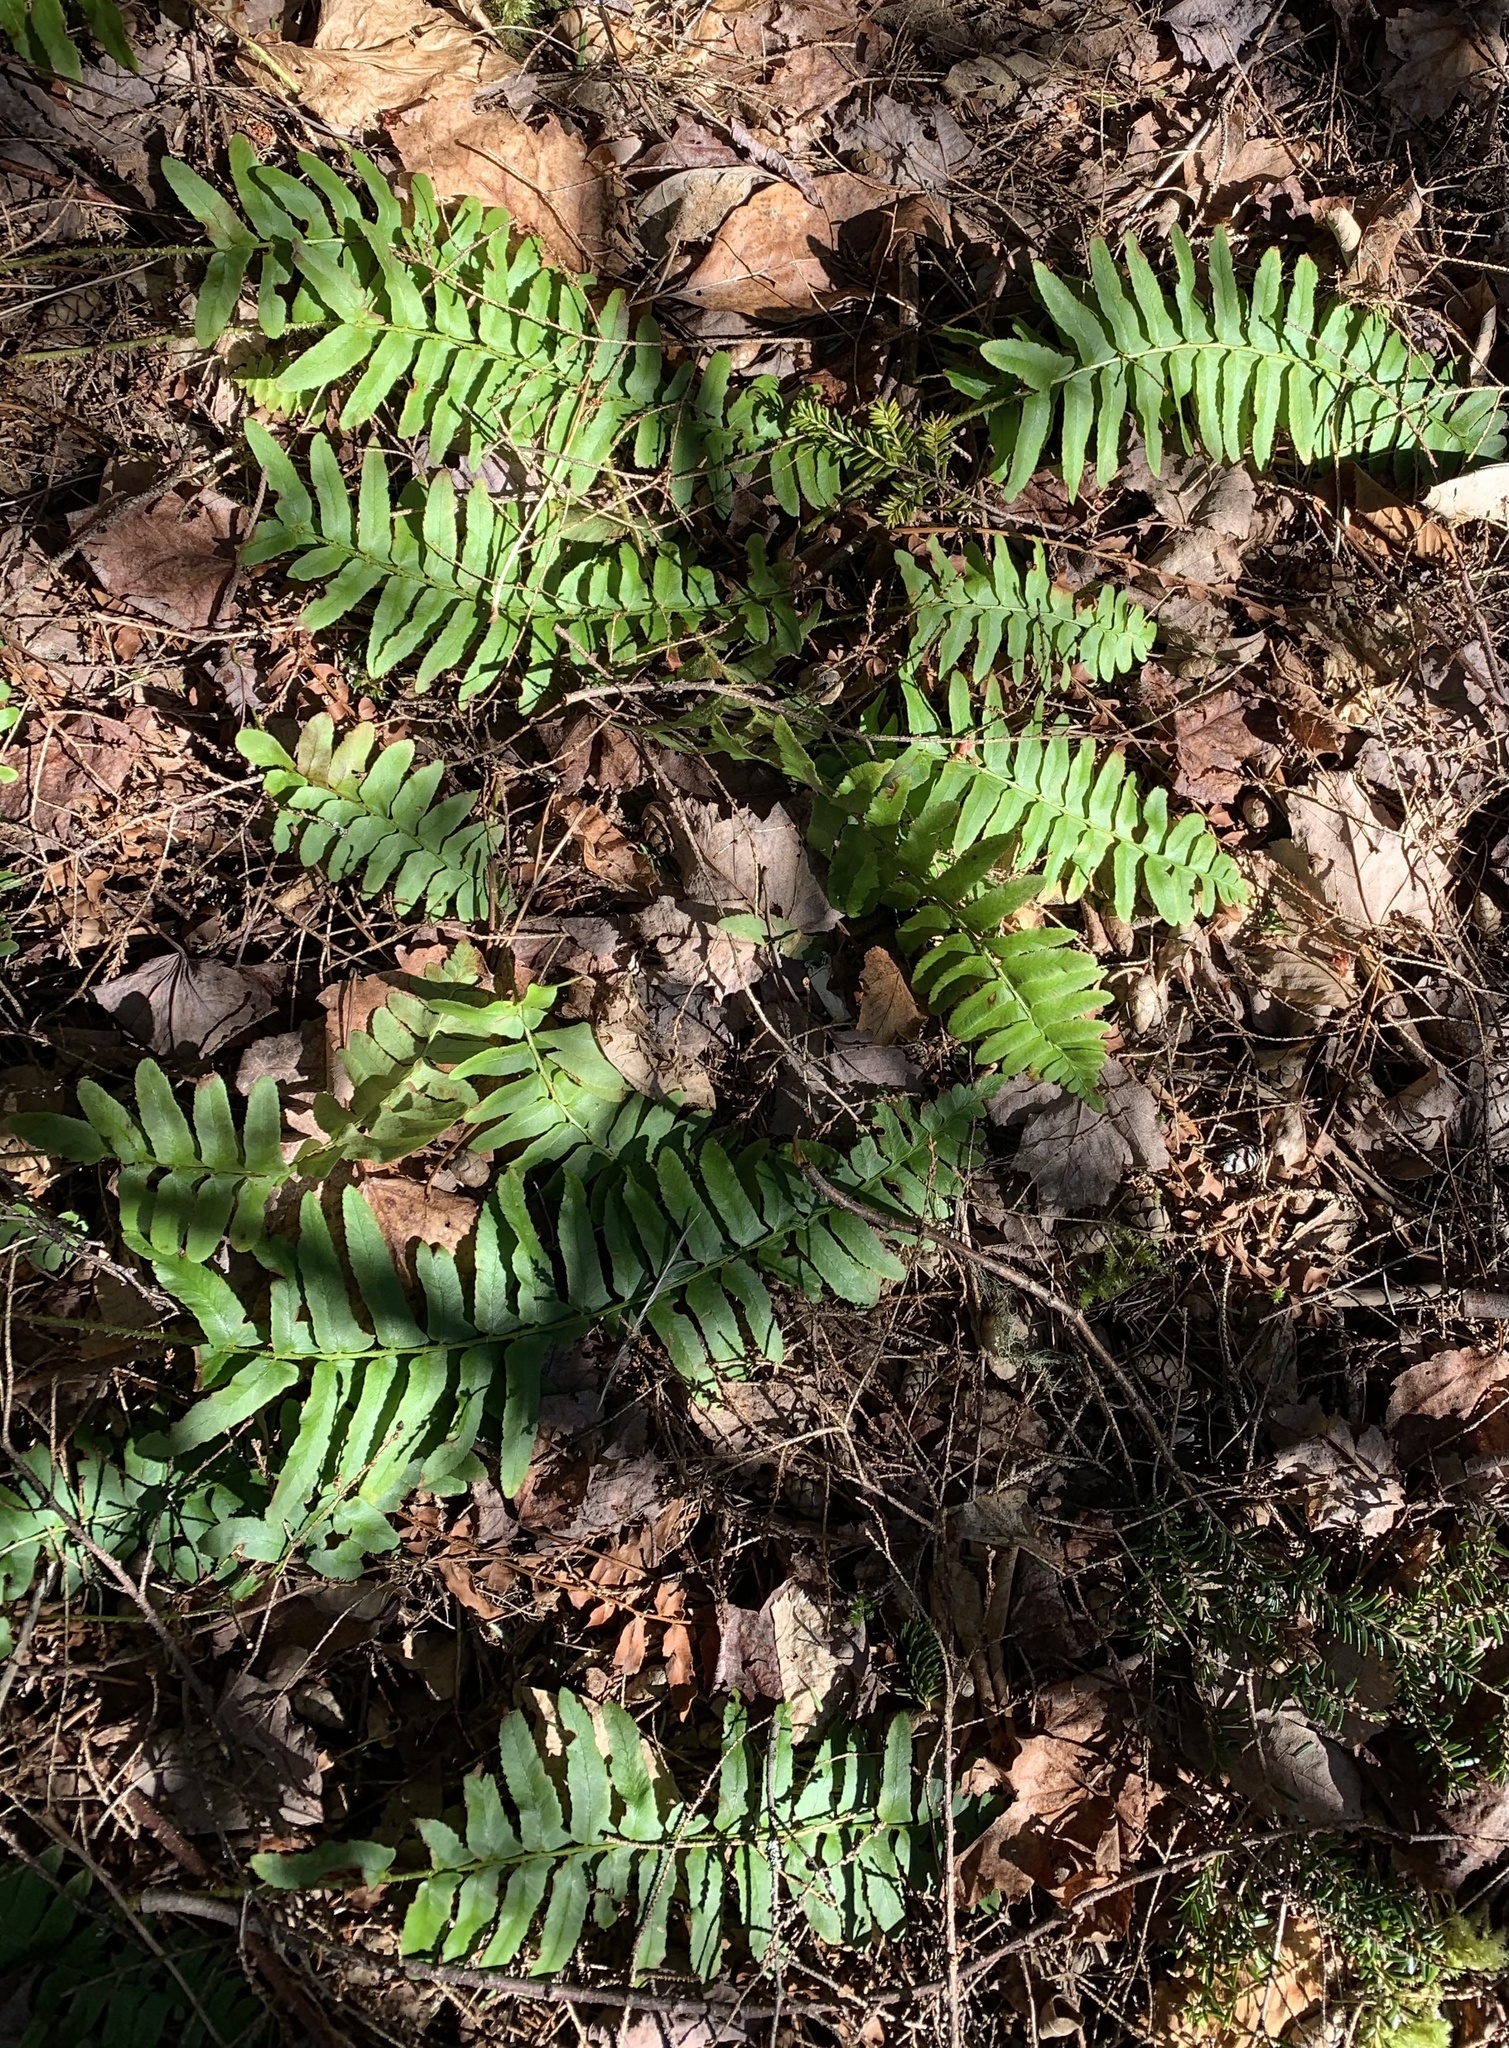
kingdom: Plantae
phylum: Tracheophyta
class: Polypodiopsida
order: Polypodiales
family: Dryopteridaceae
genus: Polystichum
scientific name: Polystichum acrostichoides
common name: Christmas fern
